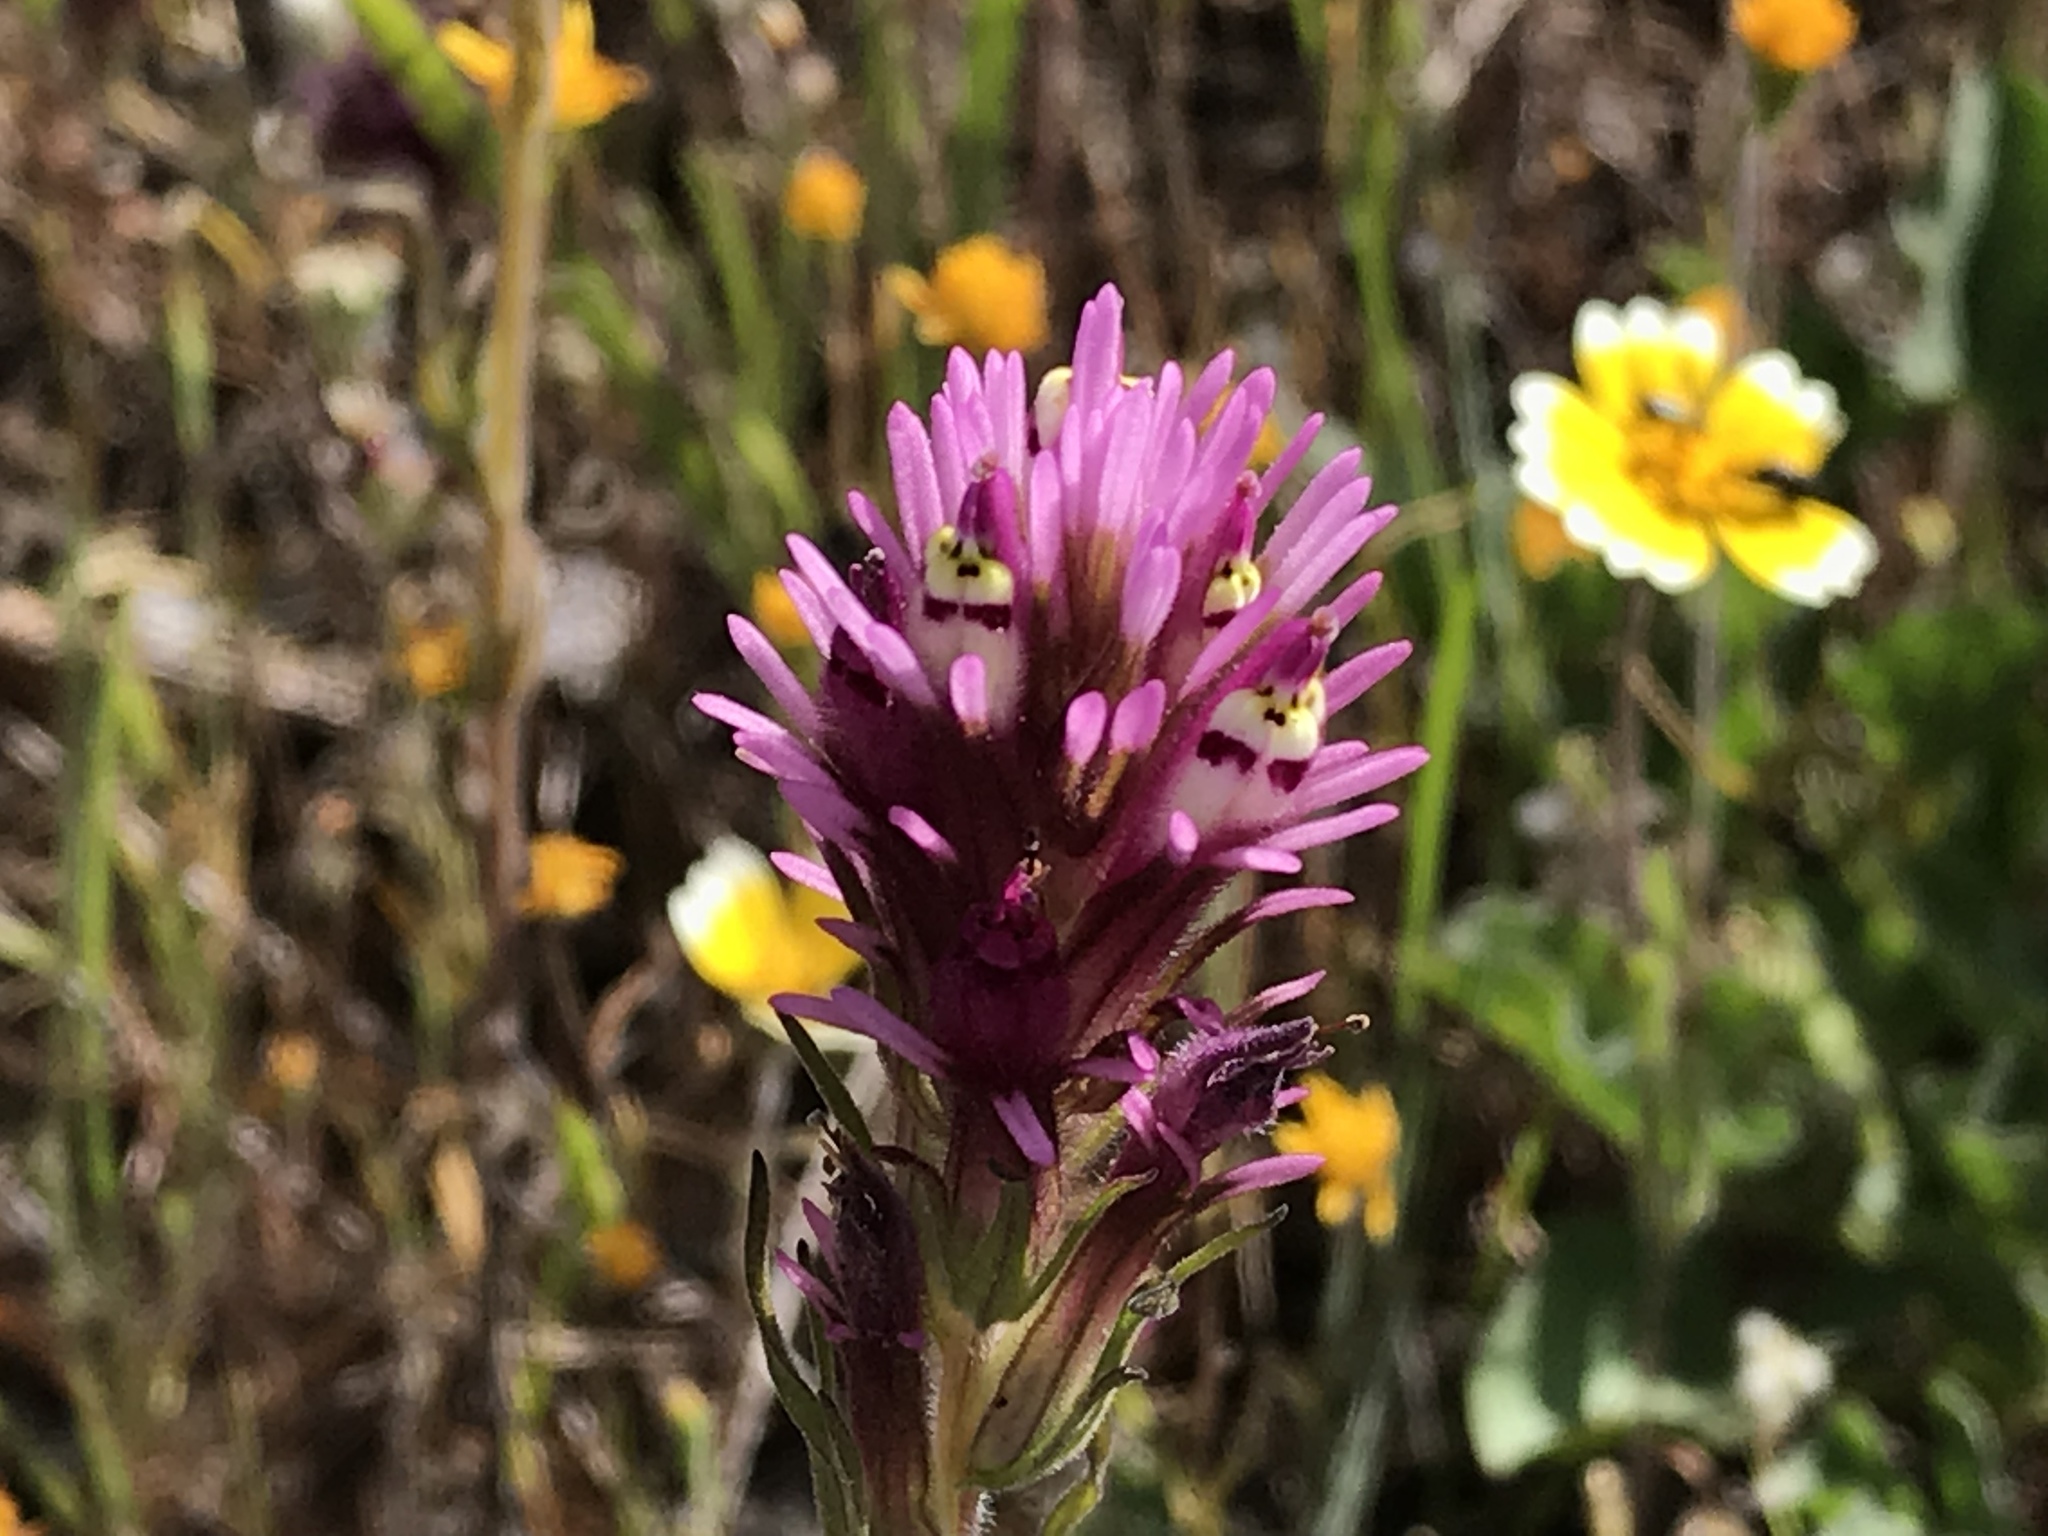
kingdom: Plantae
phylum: Tracheophyta
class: Magnoliopsida
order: Lamiales
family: Orobanchaceae
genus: Castilleja
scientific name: Castilleja densiflora
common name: Dense-flower indian paintbrush
